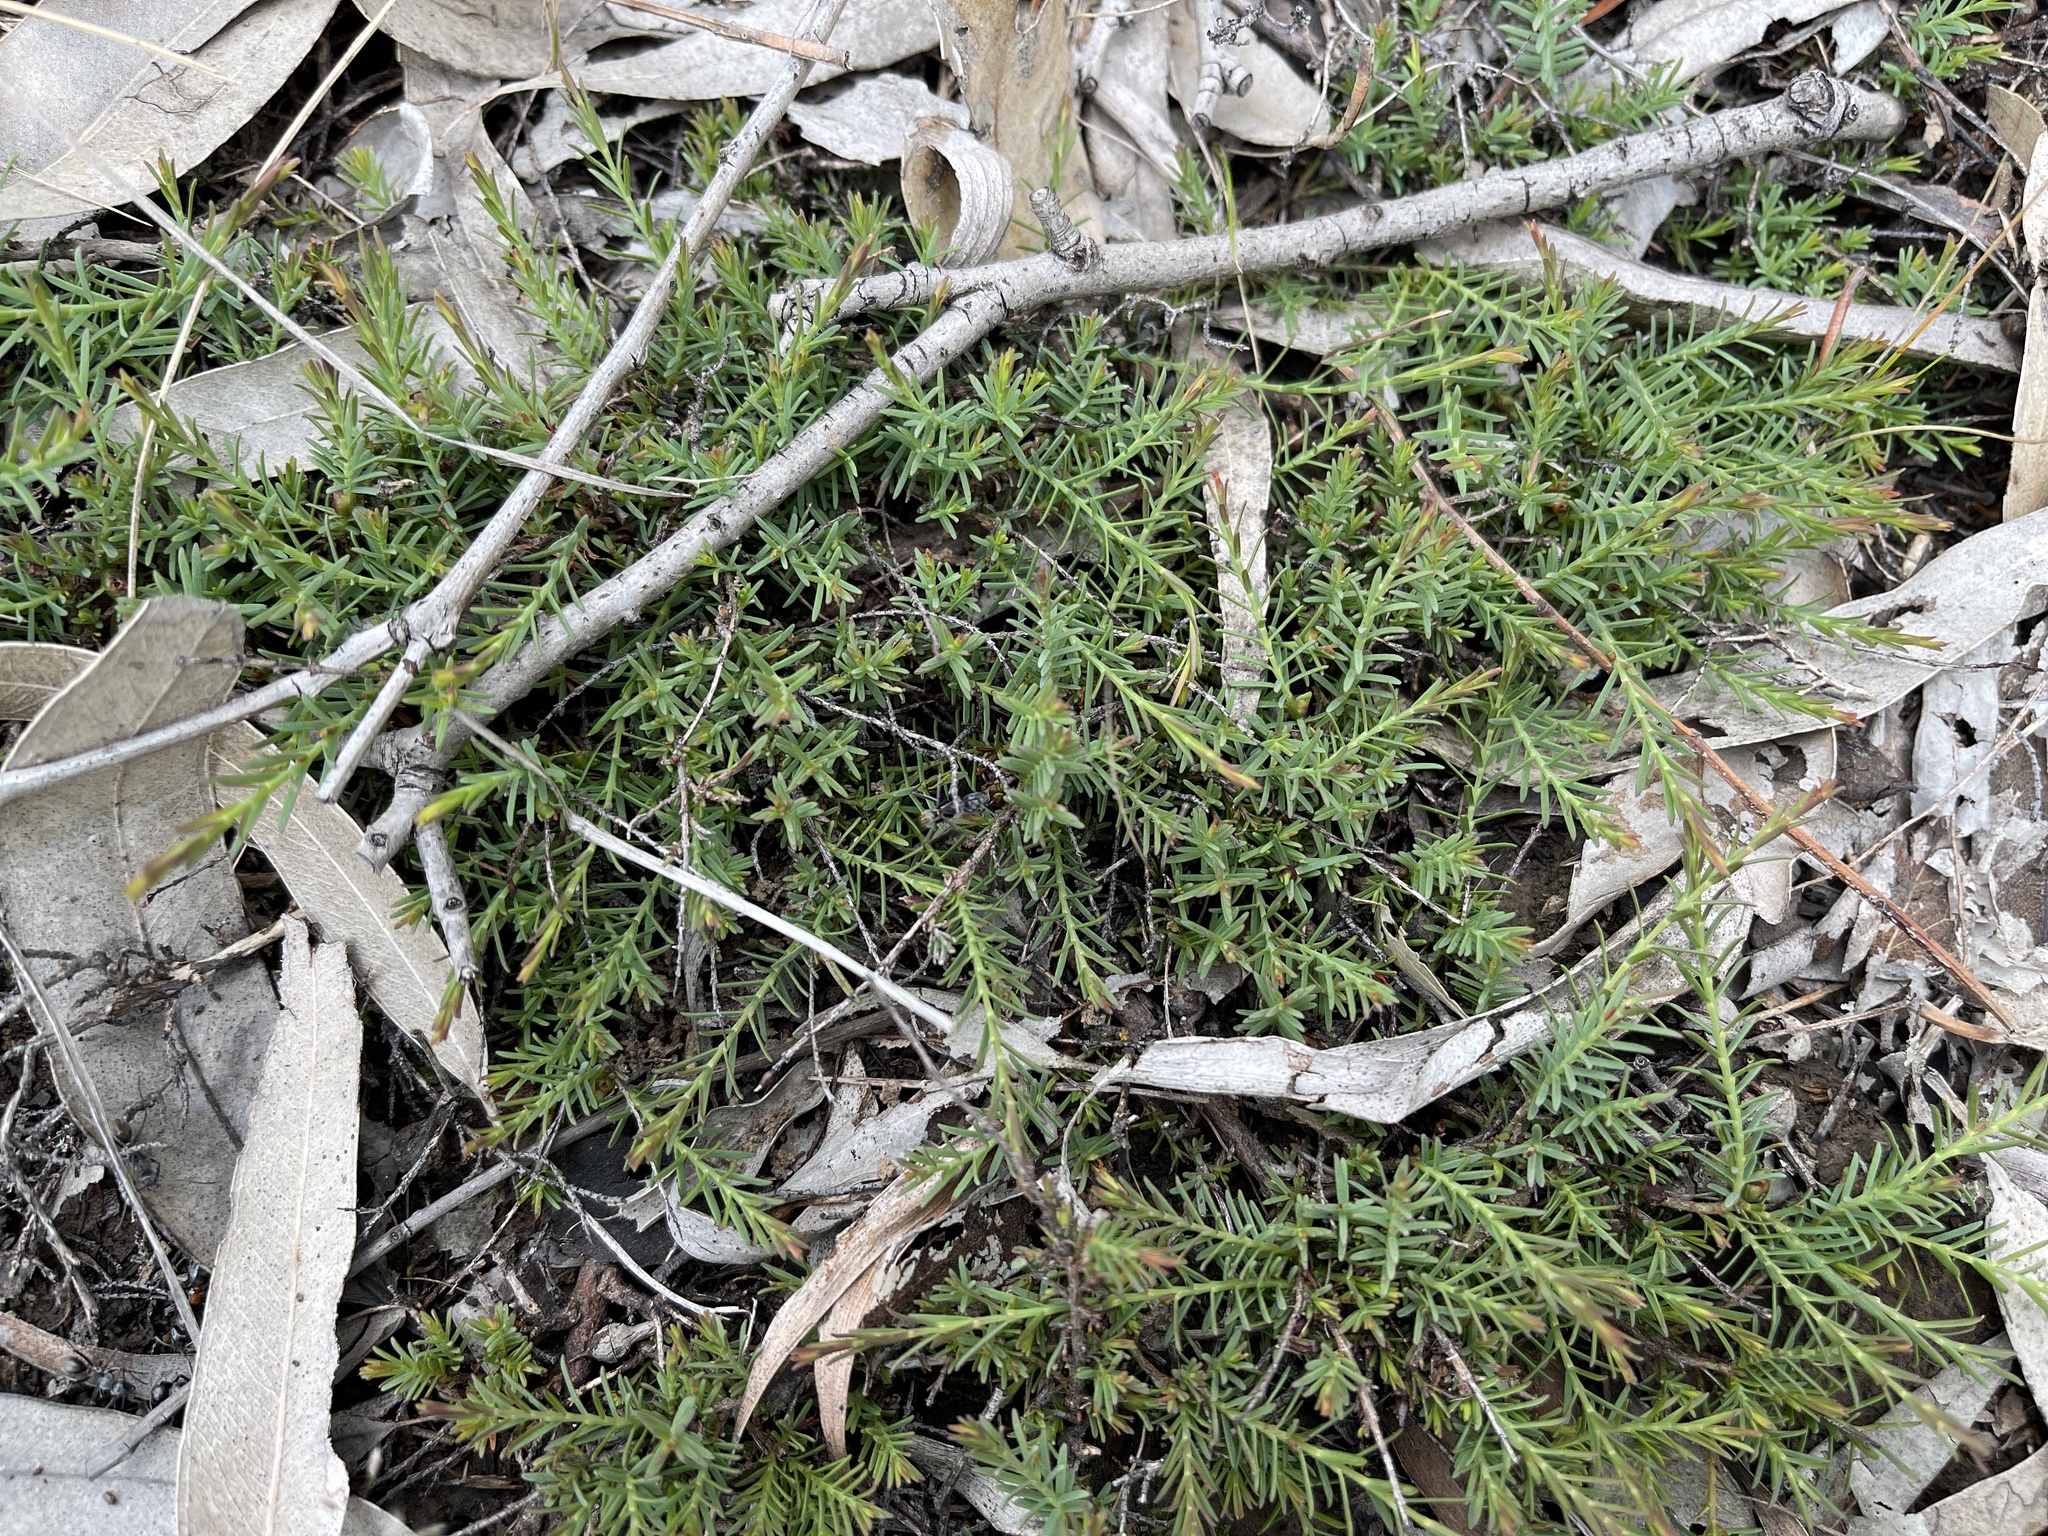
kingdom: Plantae
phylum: Tracheophyta
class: Magnoliopsida
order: Fabales
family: Fabaceae
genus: Eutaxia
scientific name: Eutaxia microphylla
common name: Mallee bush-pea
